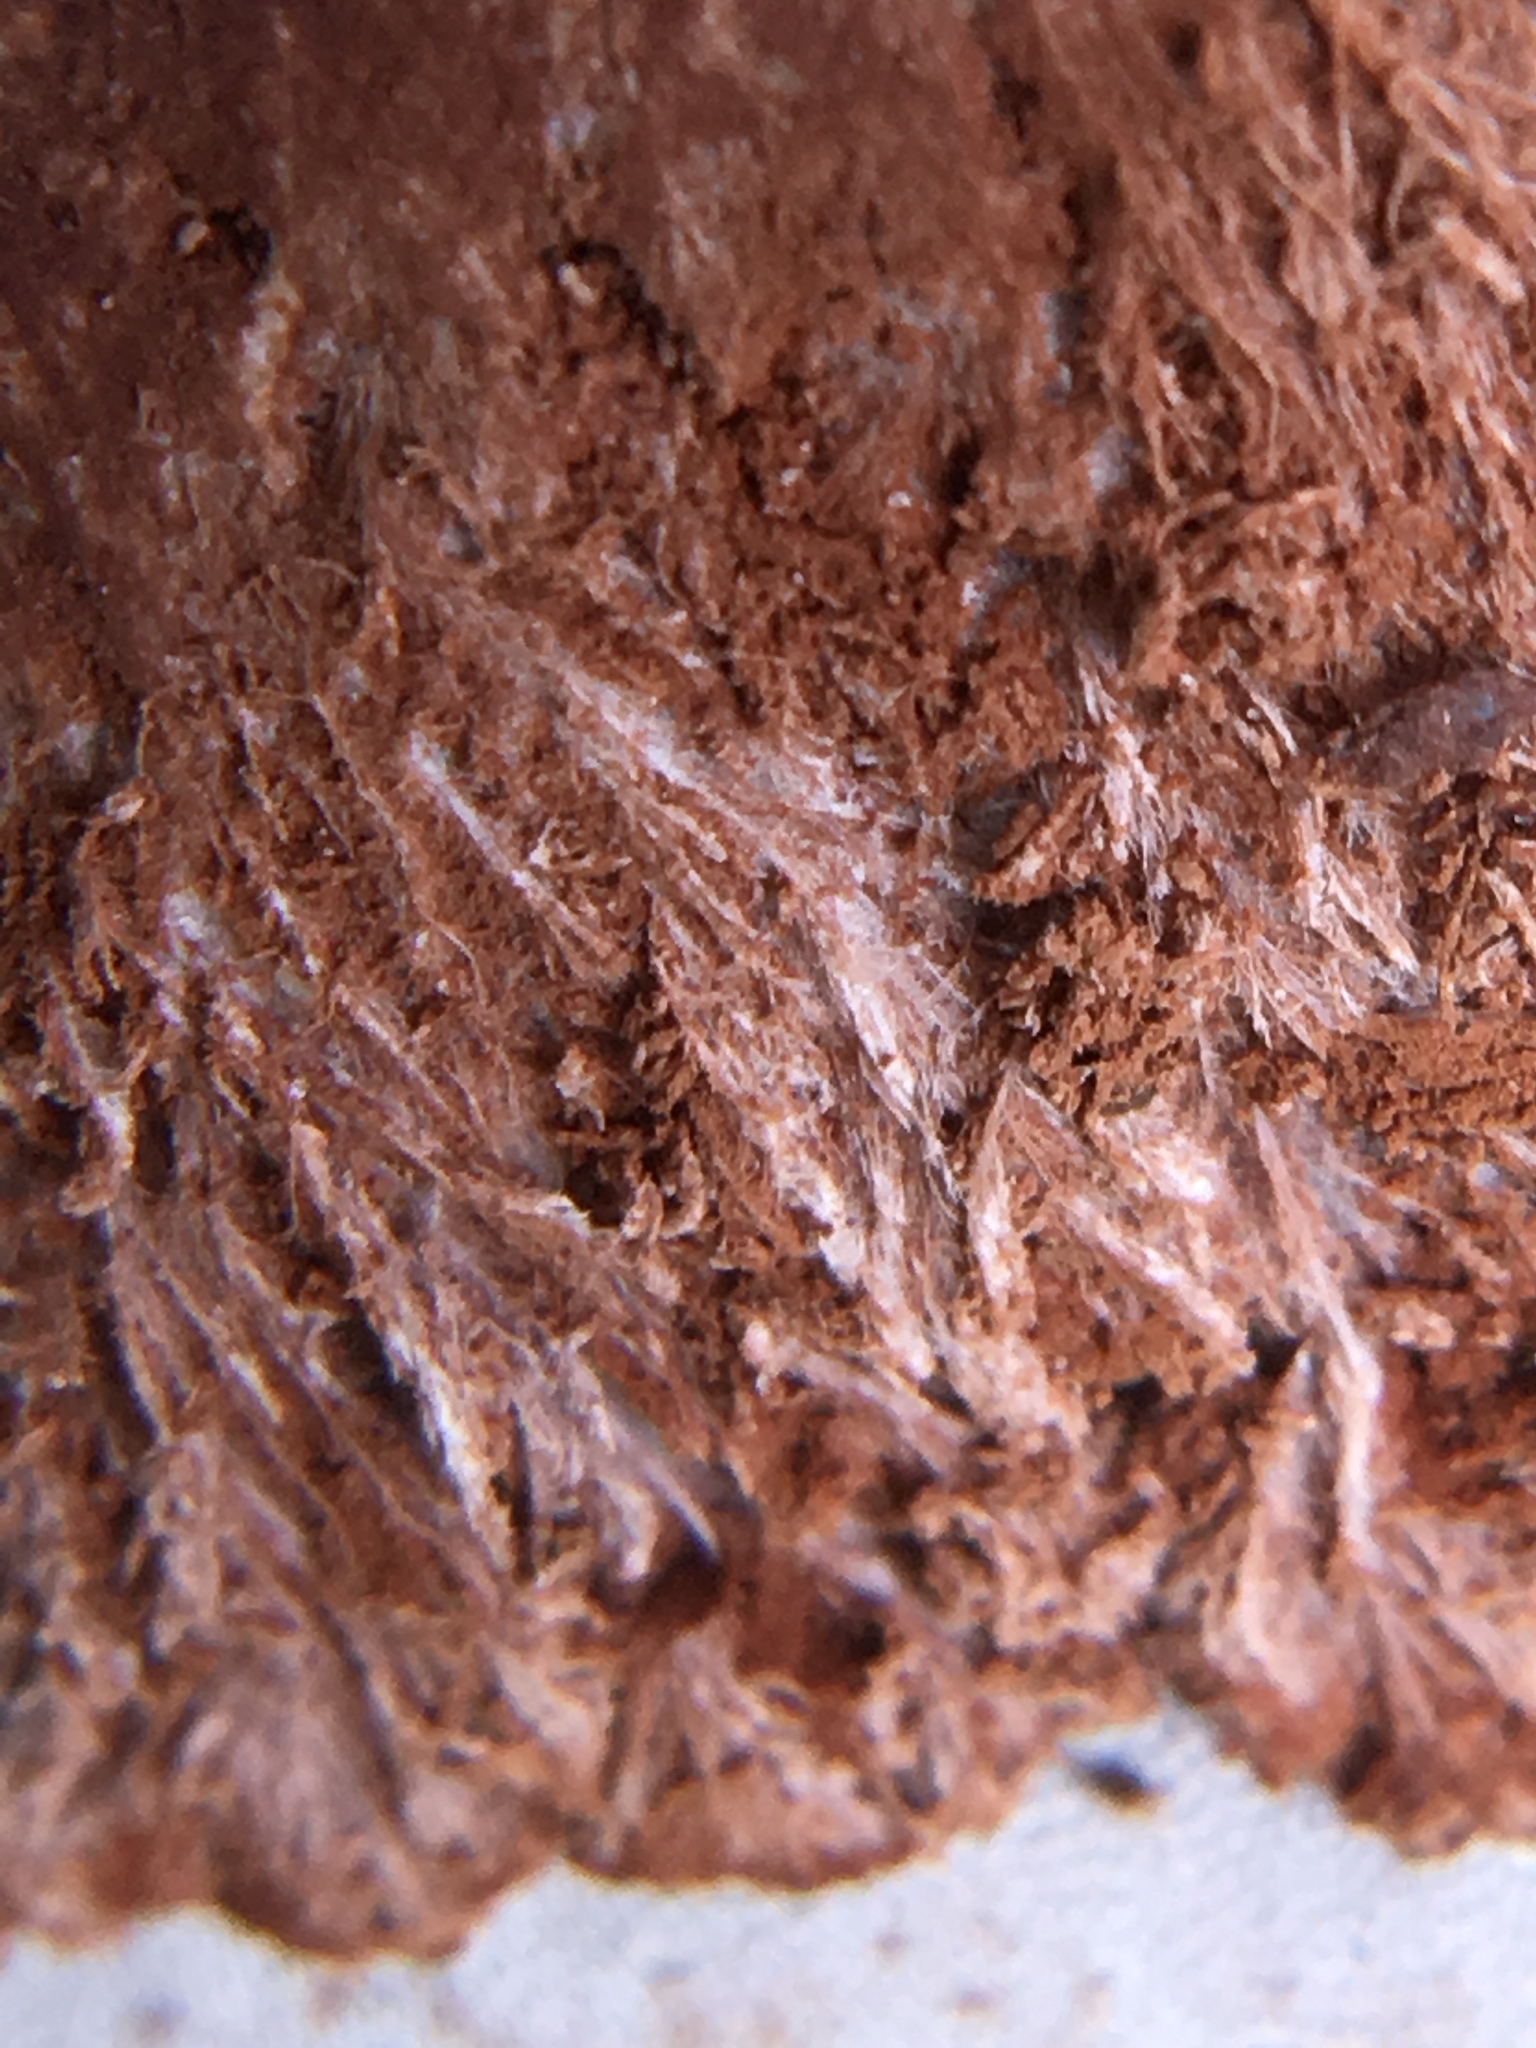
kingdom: Fungi
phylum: Ascomycota
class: Sordariomycetes
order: Hypocreales
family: Hypocreaceae
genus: Sporophagomyces
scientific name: Sporophagomyces chrysostomus
